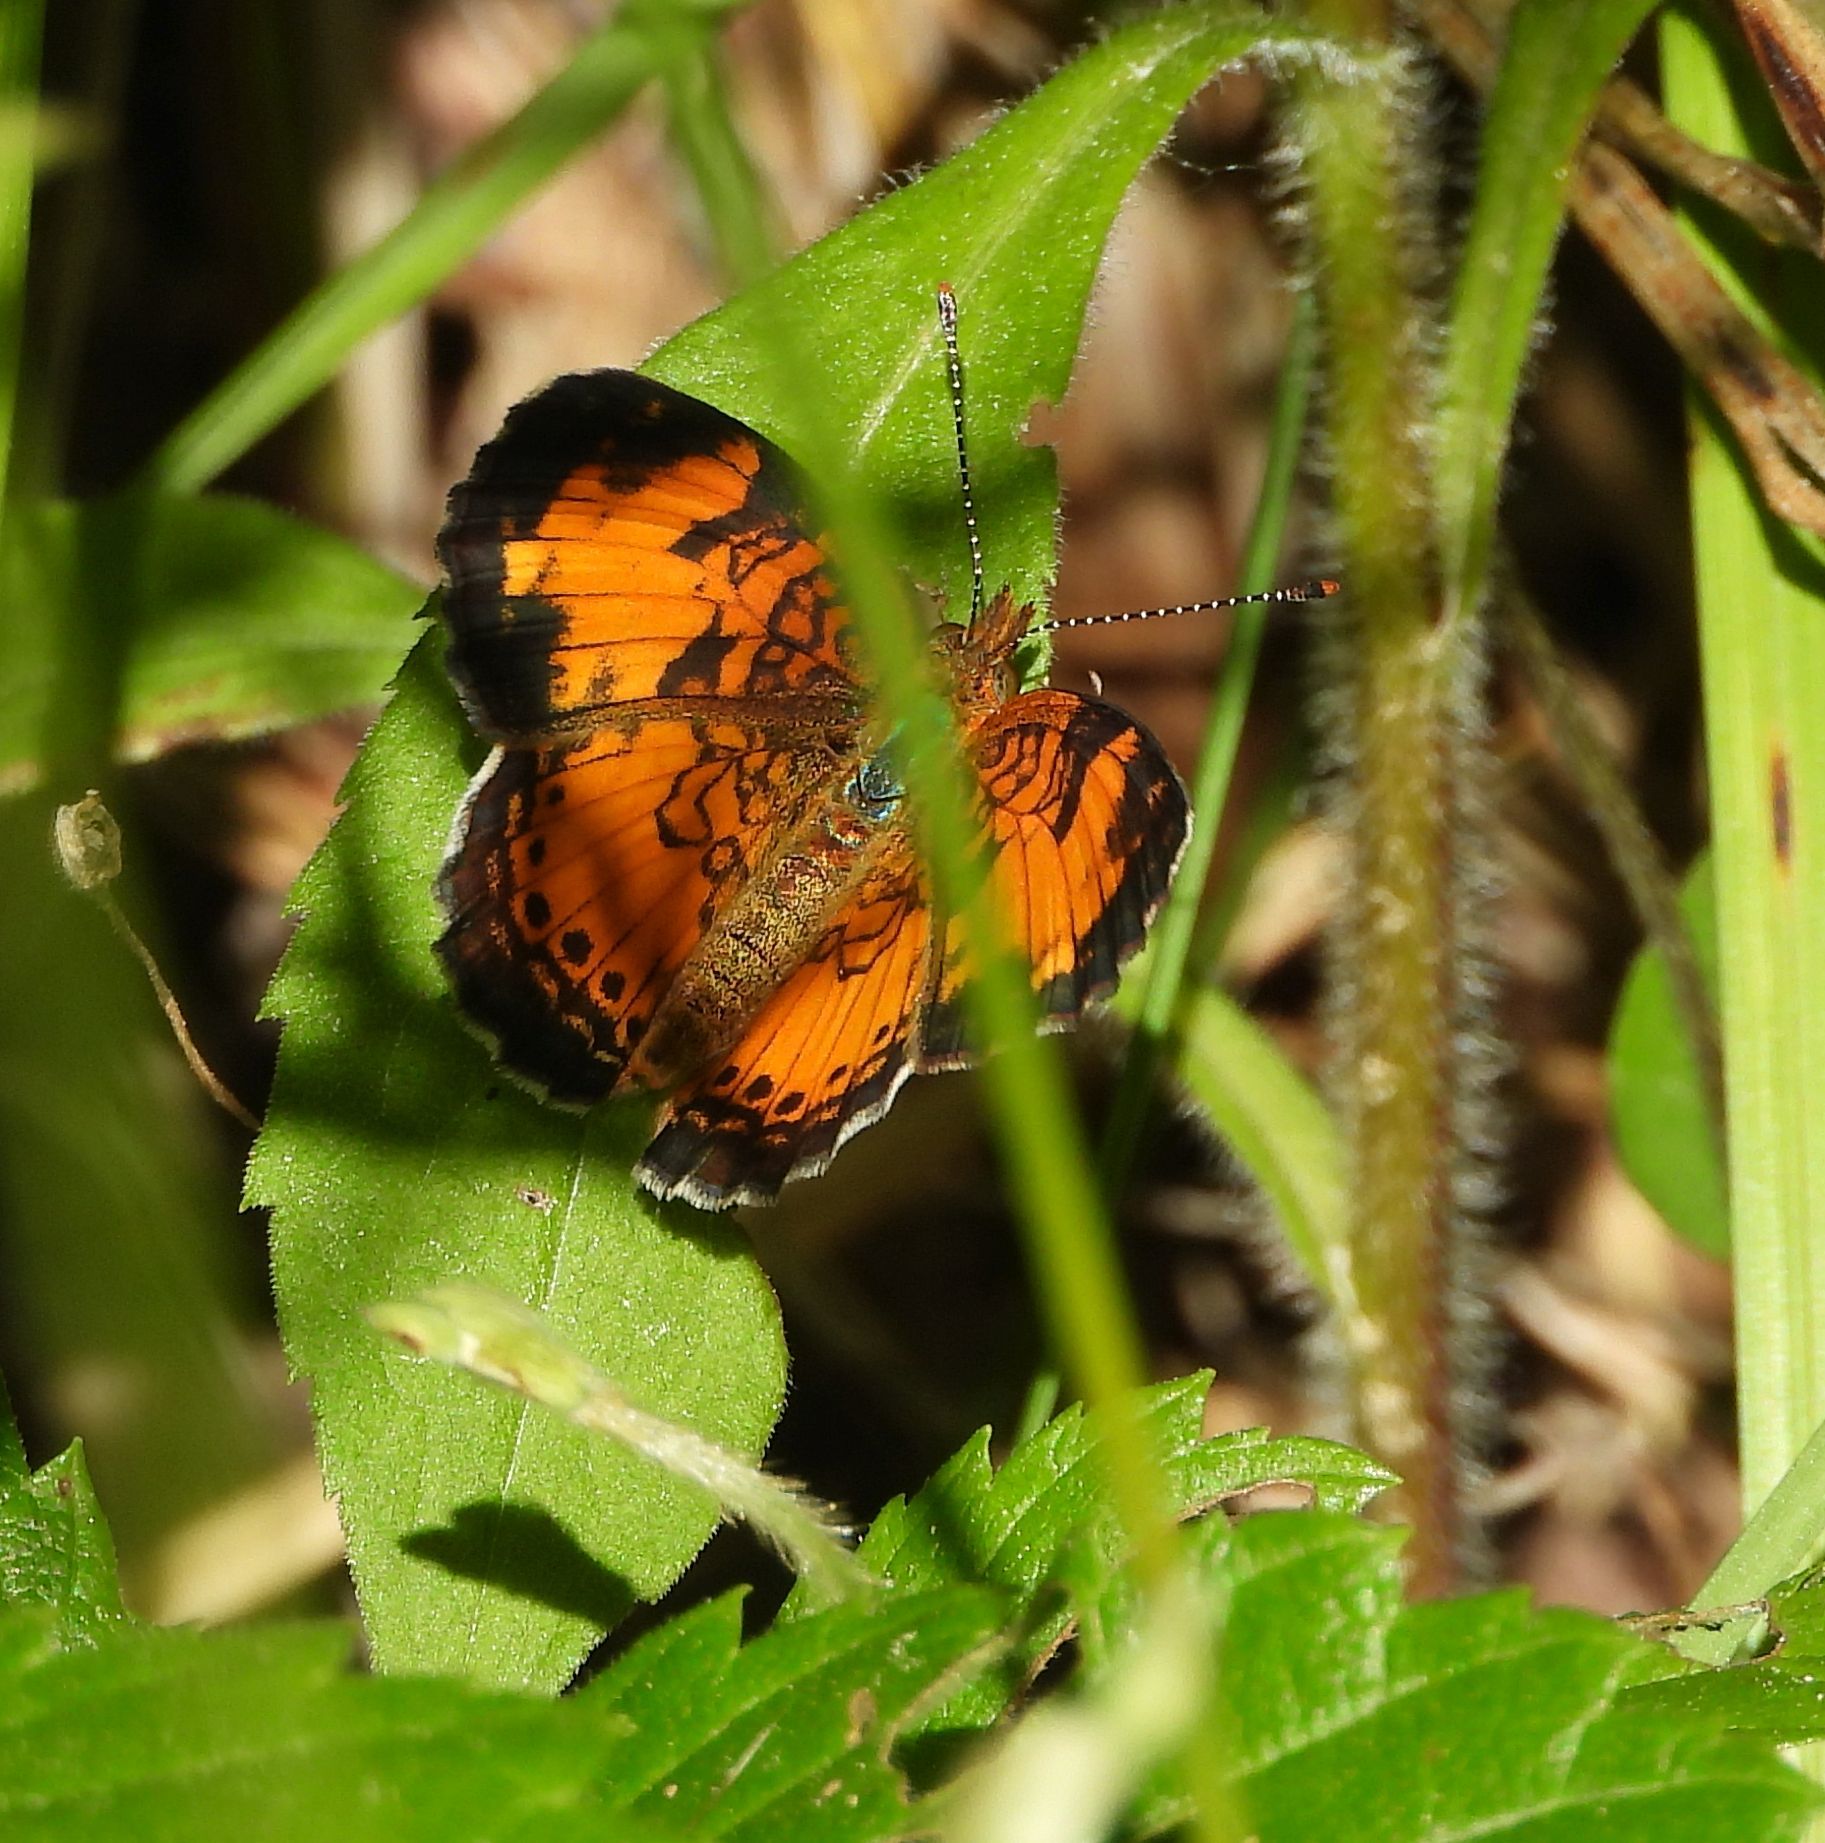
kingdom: Animalia
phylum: Arthropoda
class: Insecta
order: Lepidoptera
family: Nymphalidae
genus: Phyciodes
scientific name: Phyciodes tharos
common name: Pearl crescent
